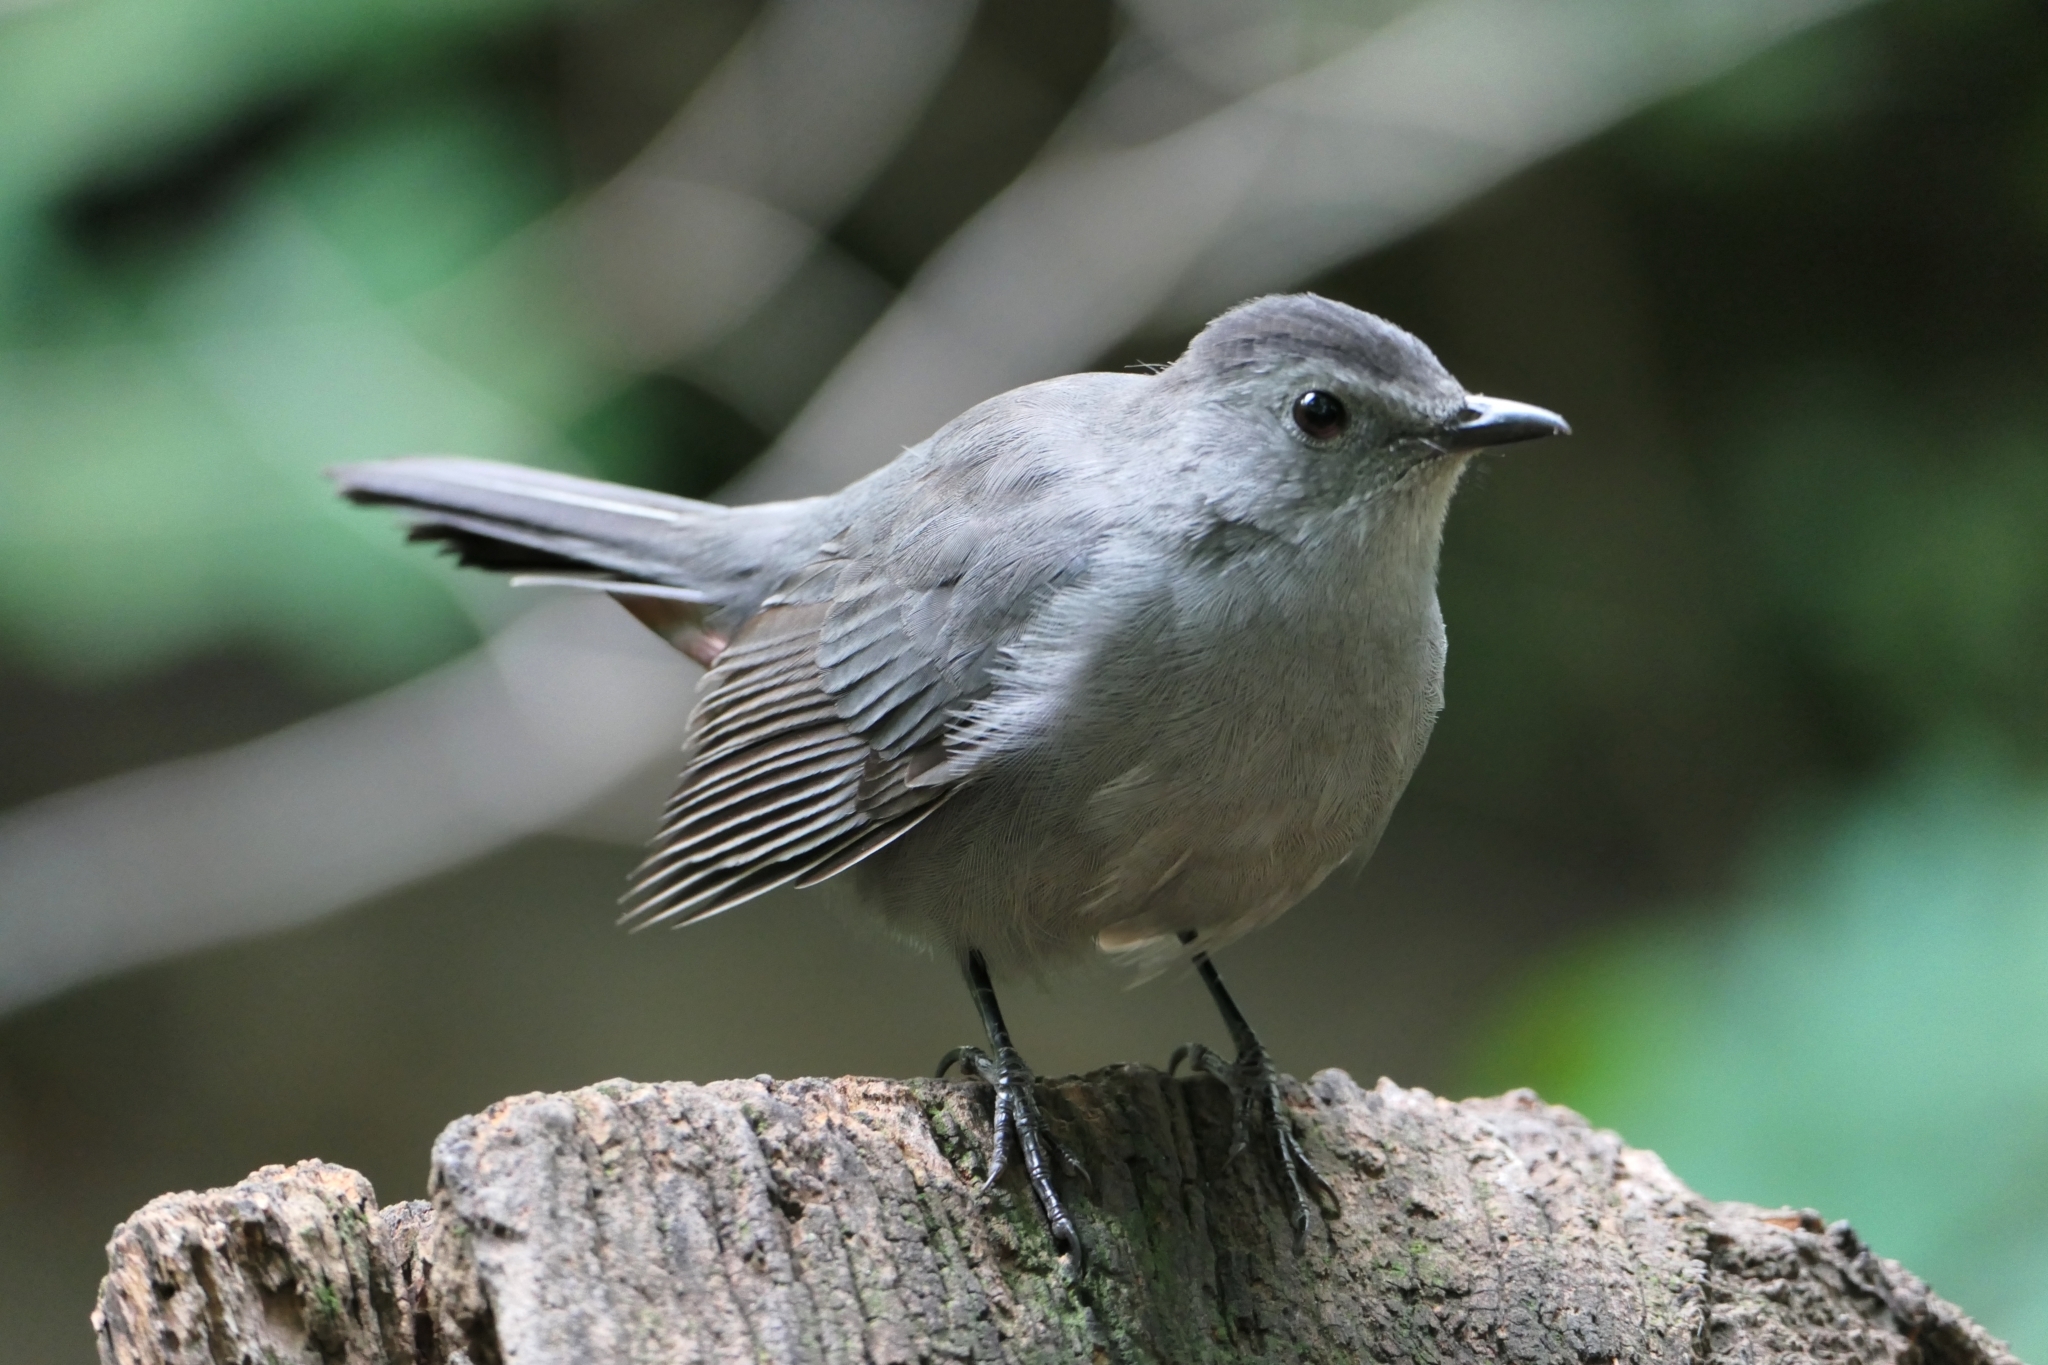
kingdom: Animalia
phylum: Chordata
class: Aves
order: Passeriformes
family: Mimidae
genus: Dumetella
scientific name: Dumetella carolinensis
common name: Gray catbird
